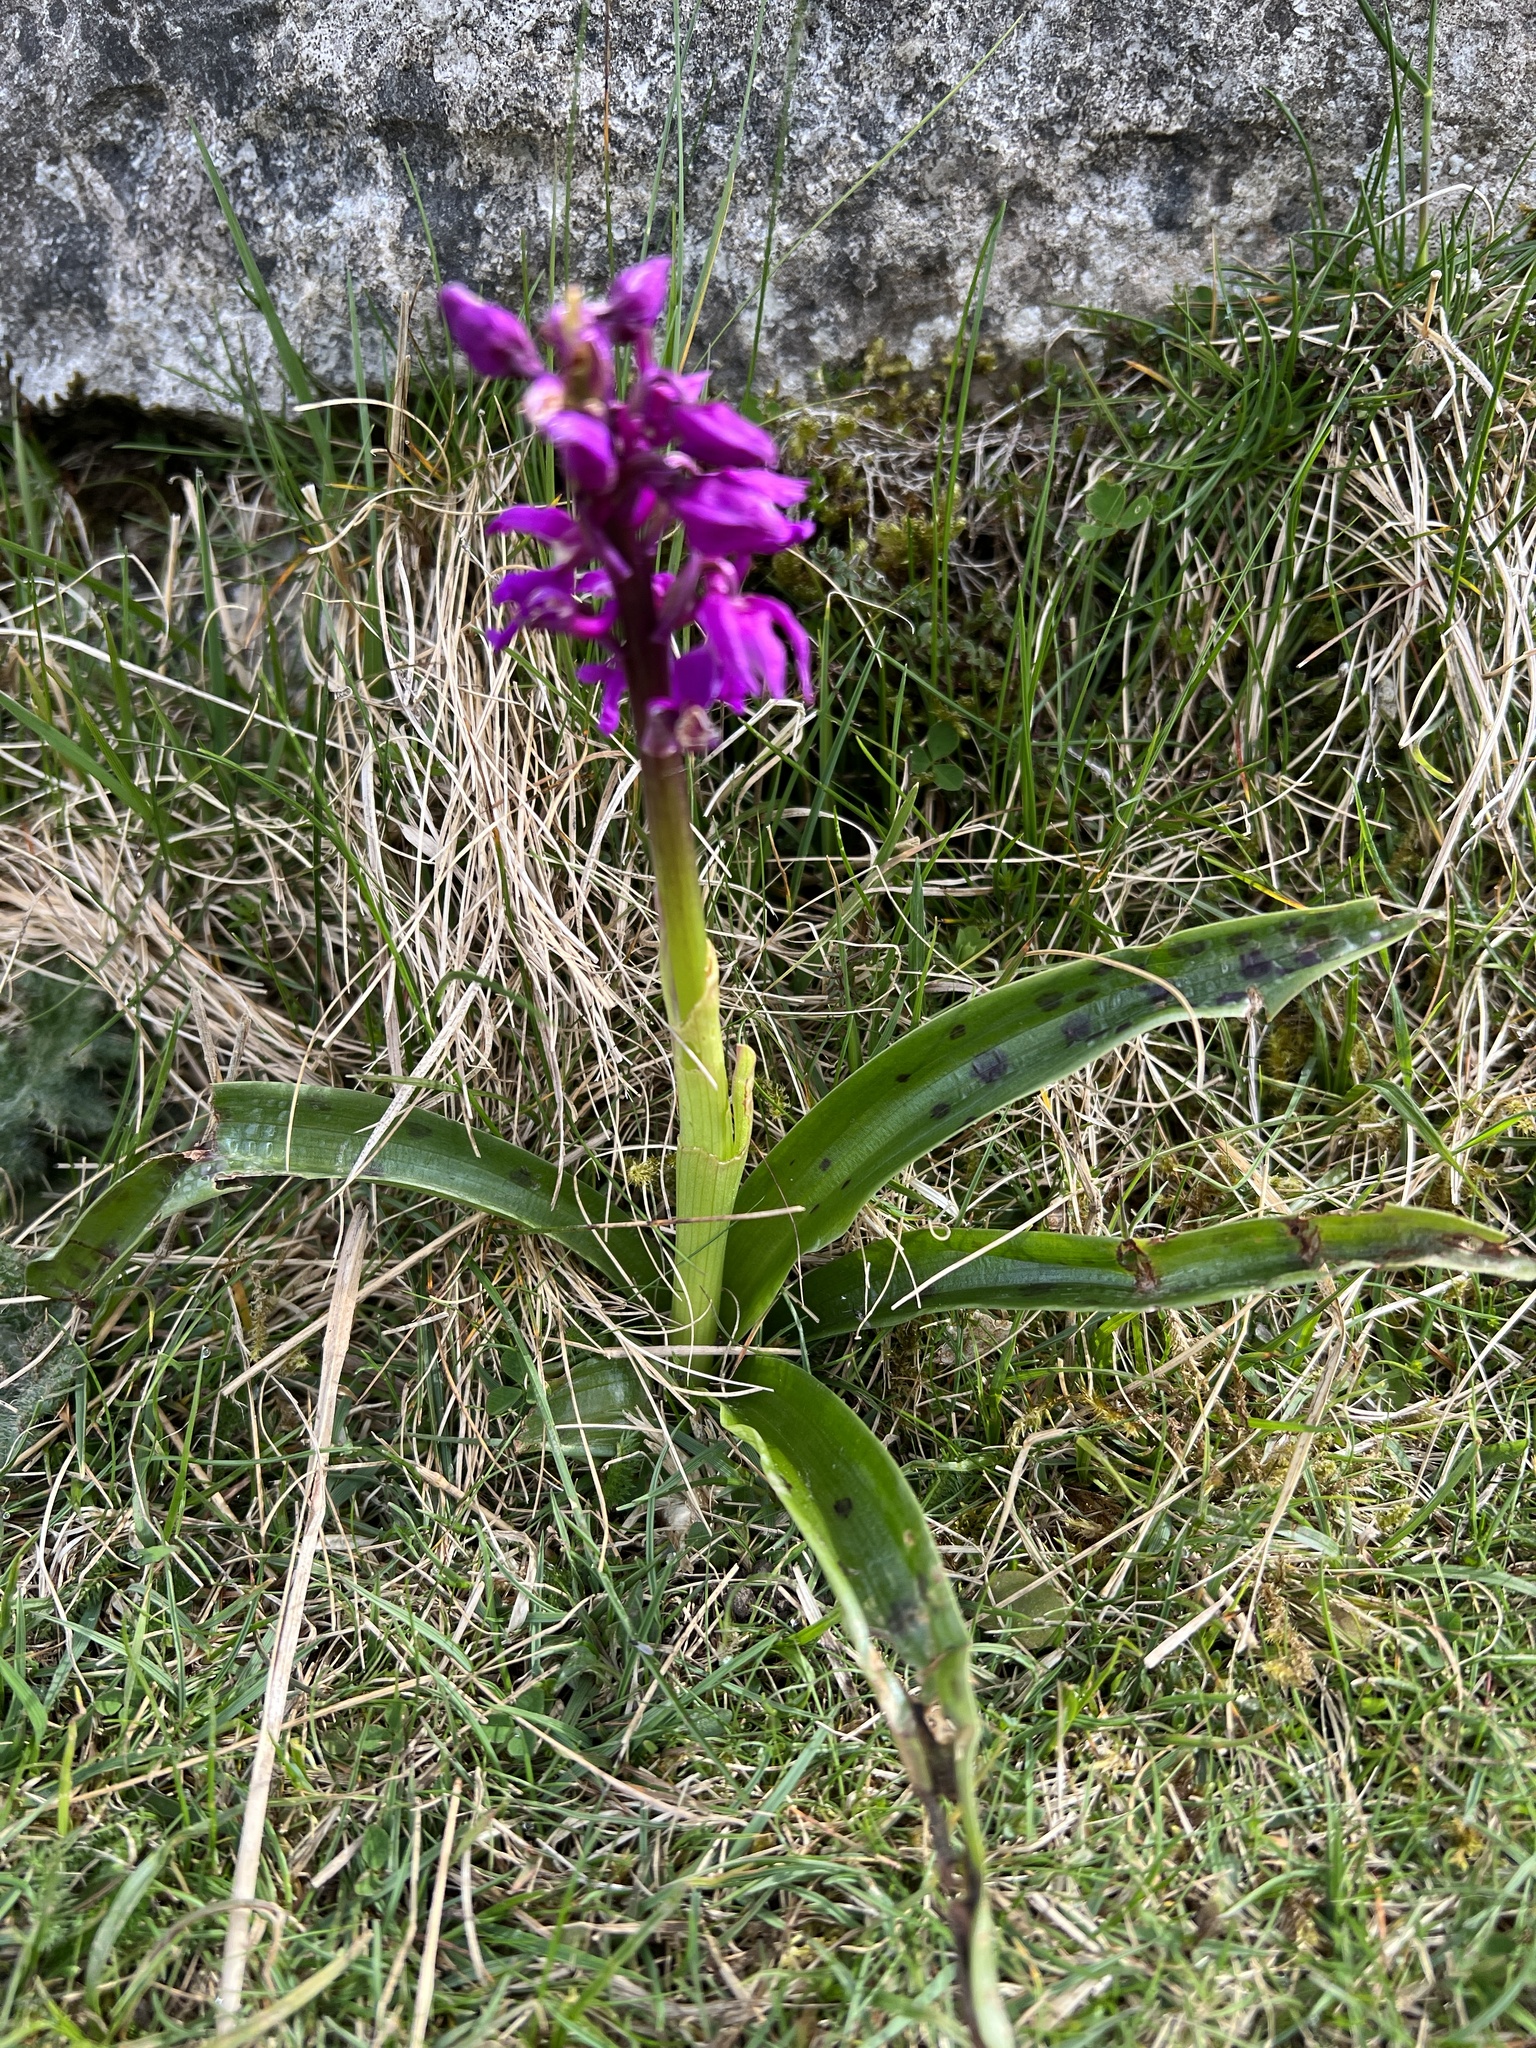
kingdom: Plantae
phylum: Tracheophyta
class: Liliopsida
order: Asparagales
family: Orchidaceae
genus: Orchis
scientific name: Orchis mascula
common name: Early-purple orchid
